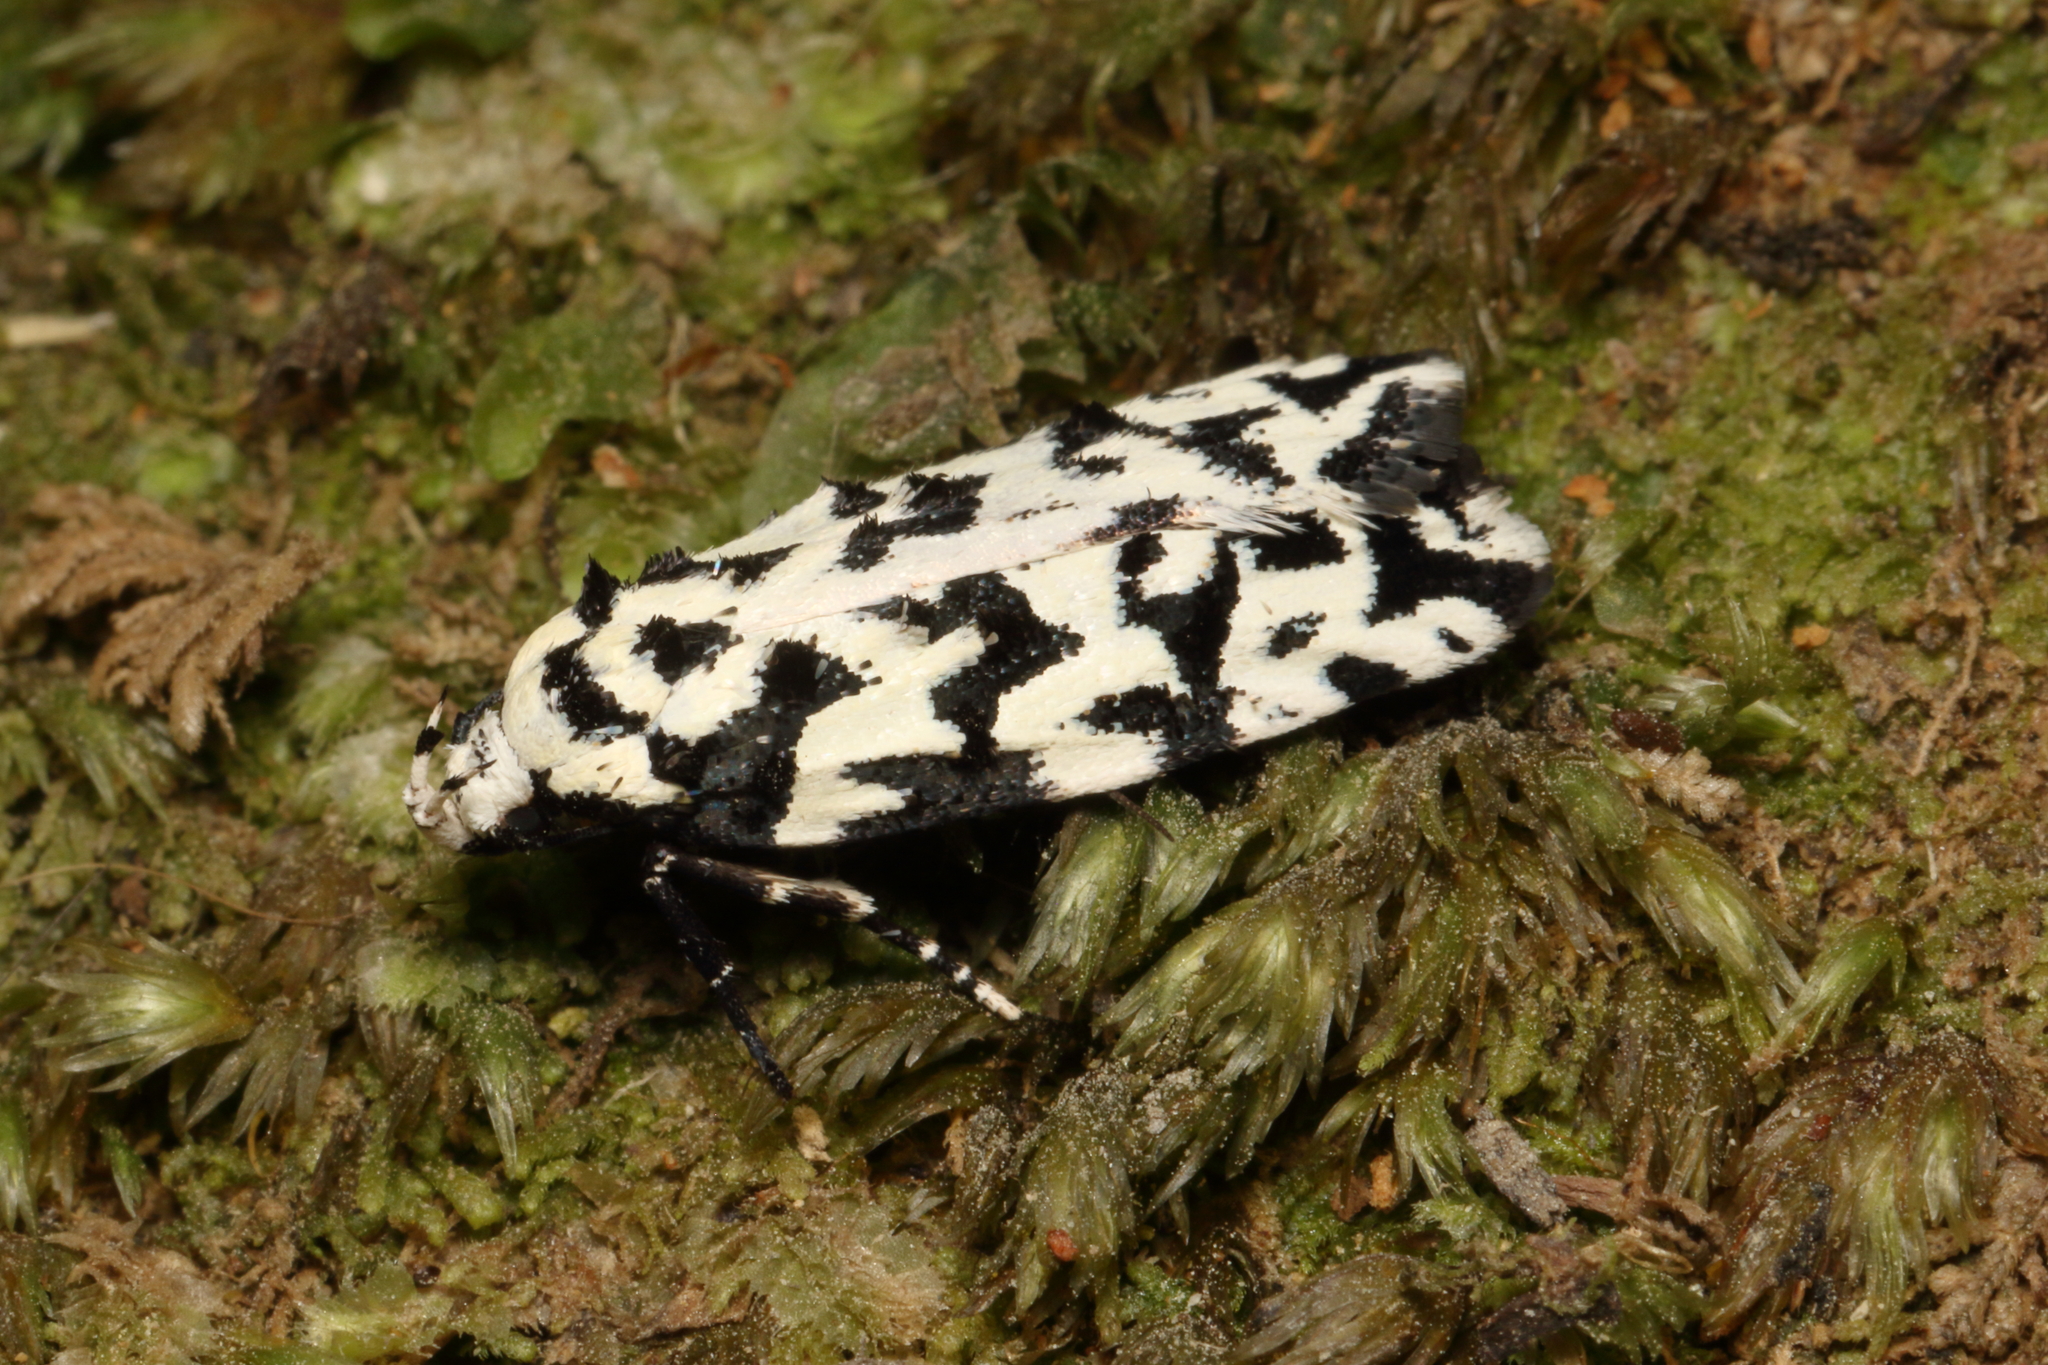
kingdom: Animalia
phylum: Arthropoda
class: Insecta
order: Lepidoptera
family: Oecophoridae
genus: Izatha
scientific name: Izatha
